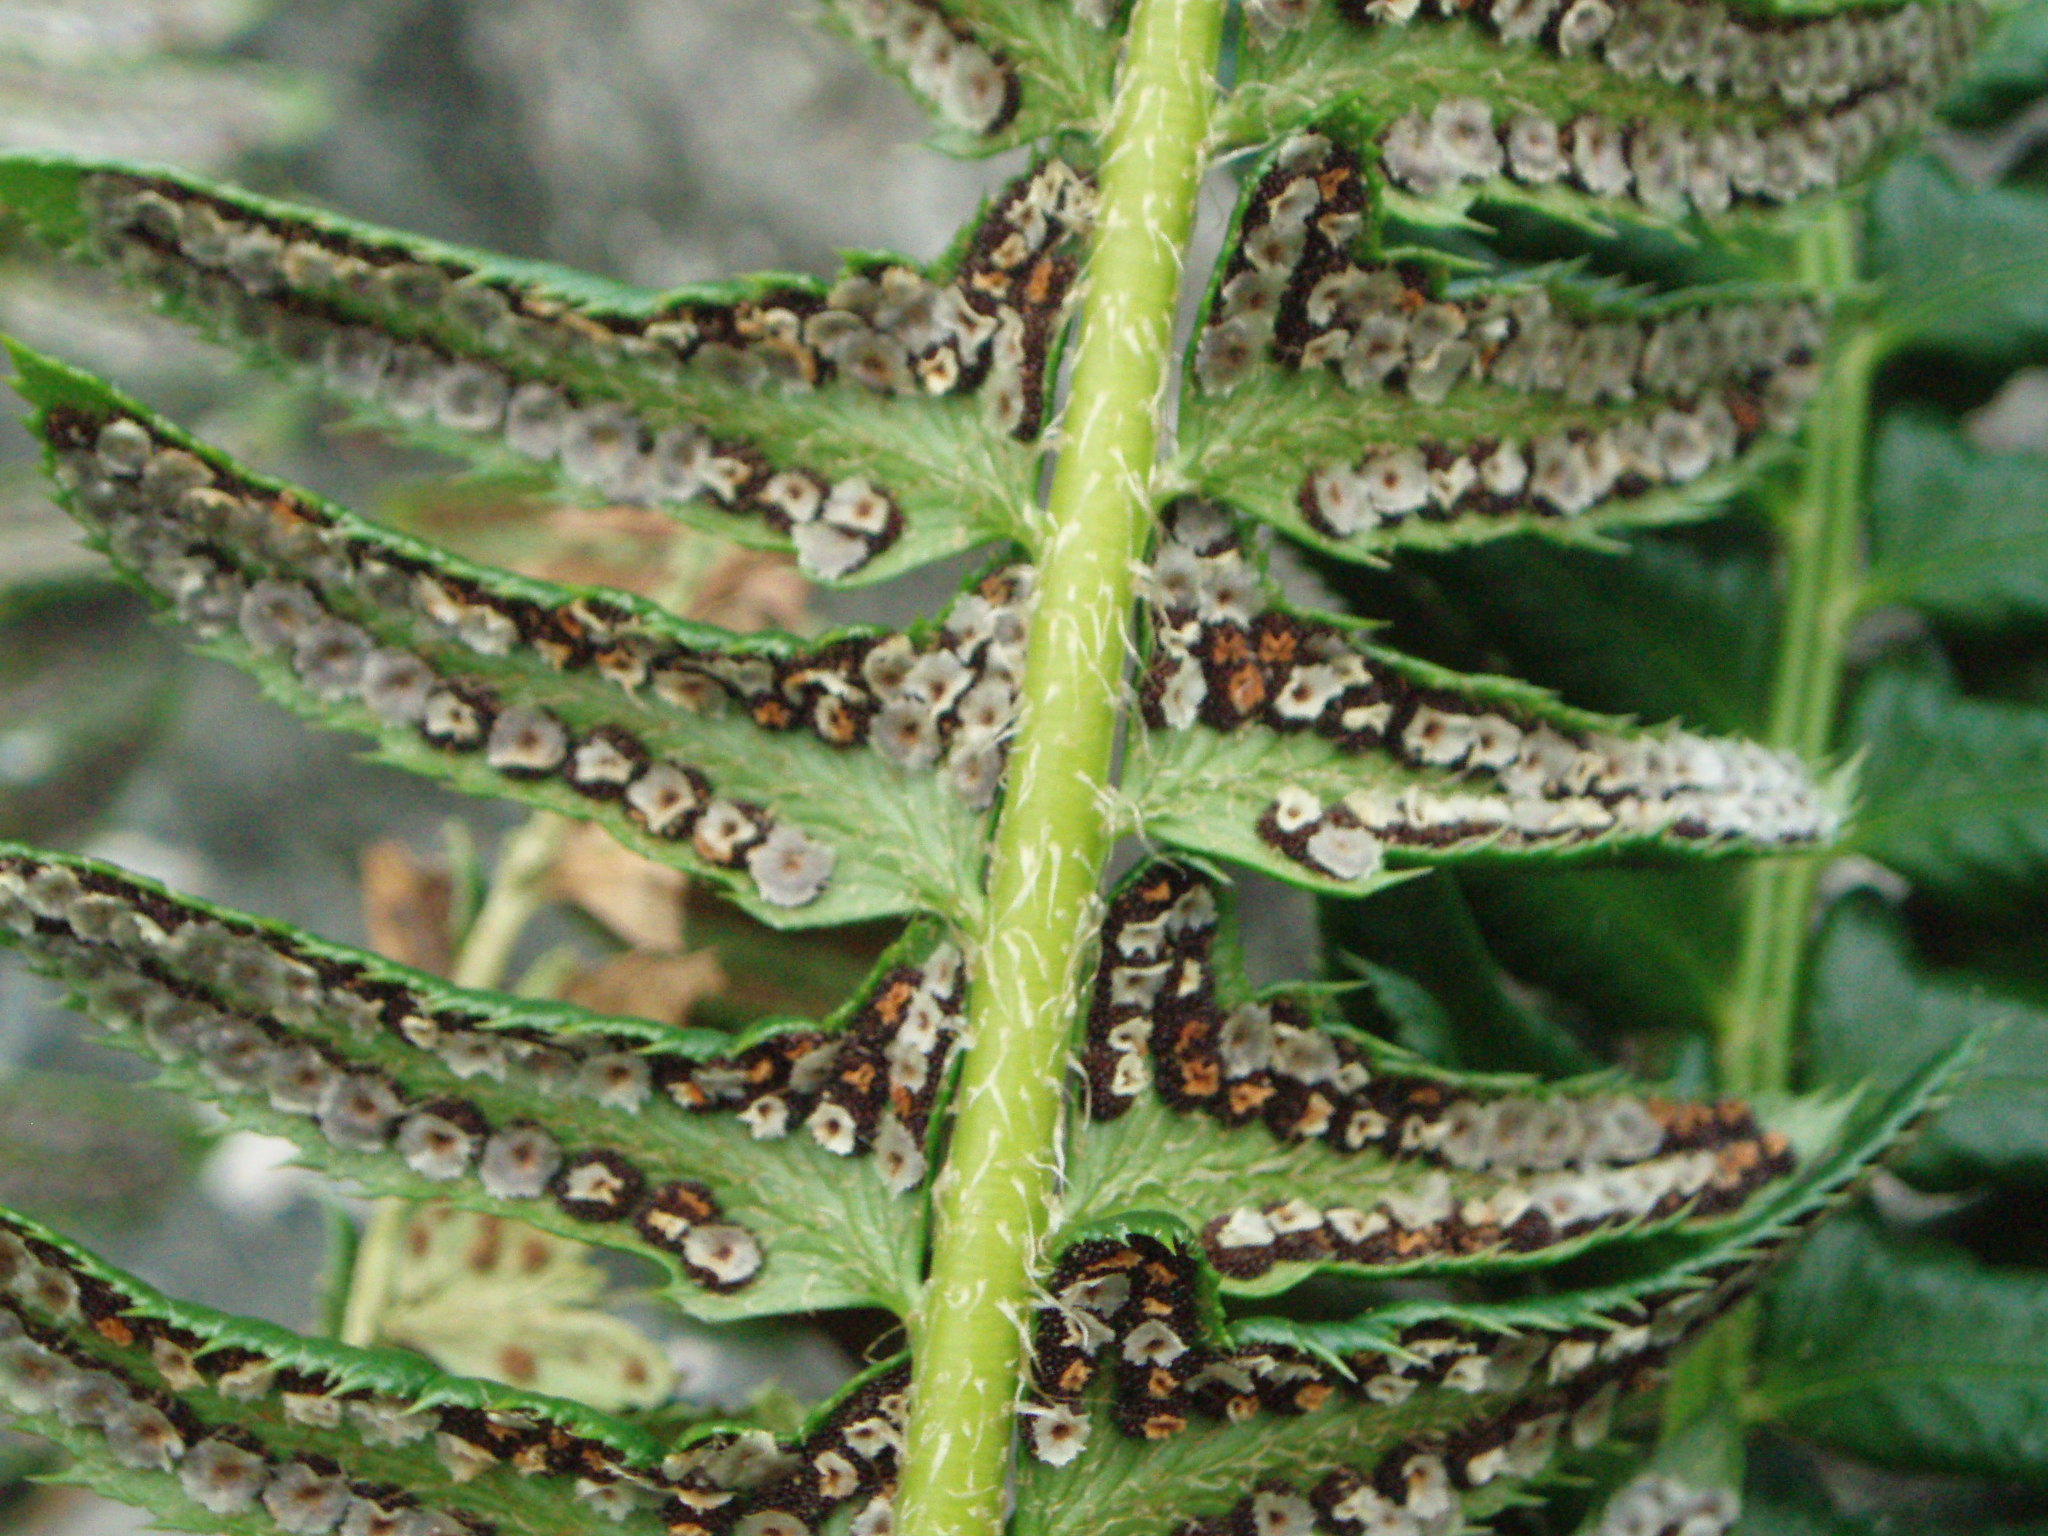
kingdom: Plantae
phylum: Tracheophyta
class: Polypodiopsida
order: Polypodiales
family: Dryopteridaceae
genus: Polystichum
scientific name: Polystichum lonchitis
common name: Holly fern
